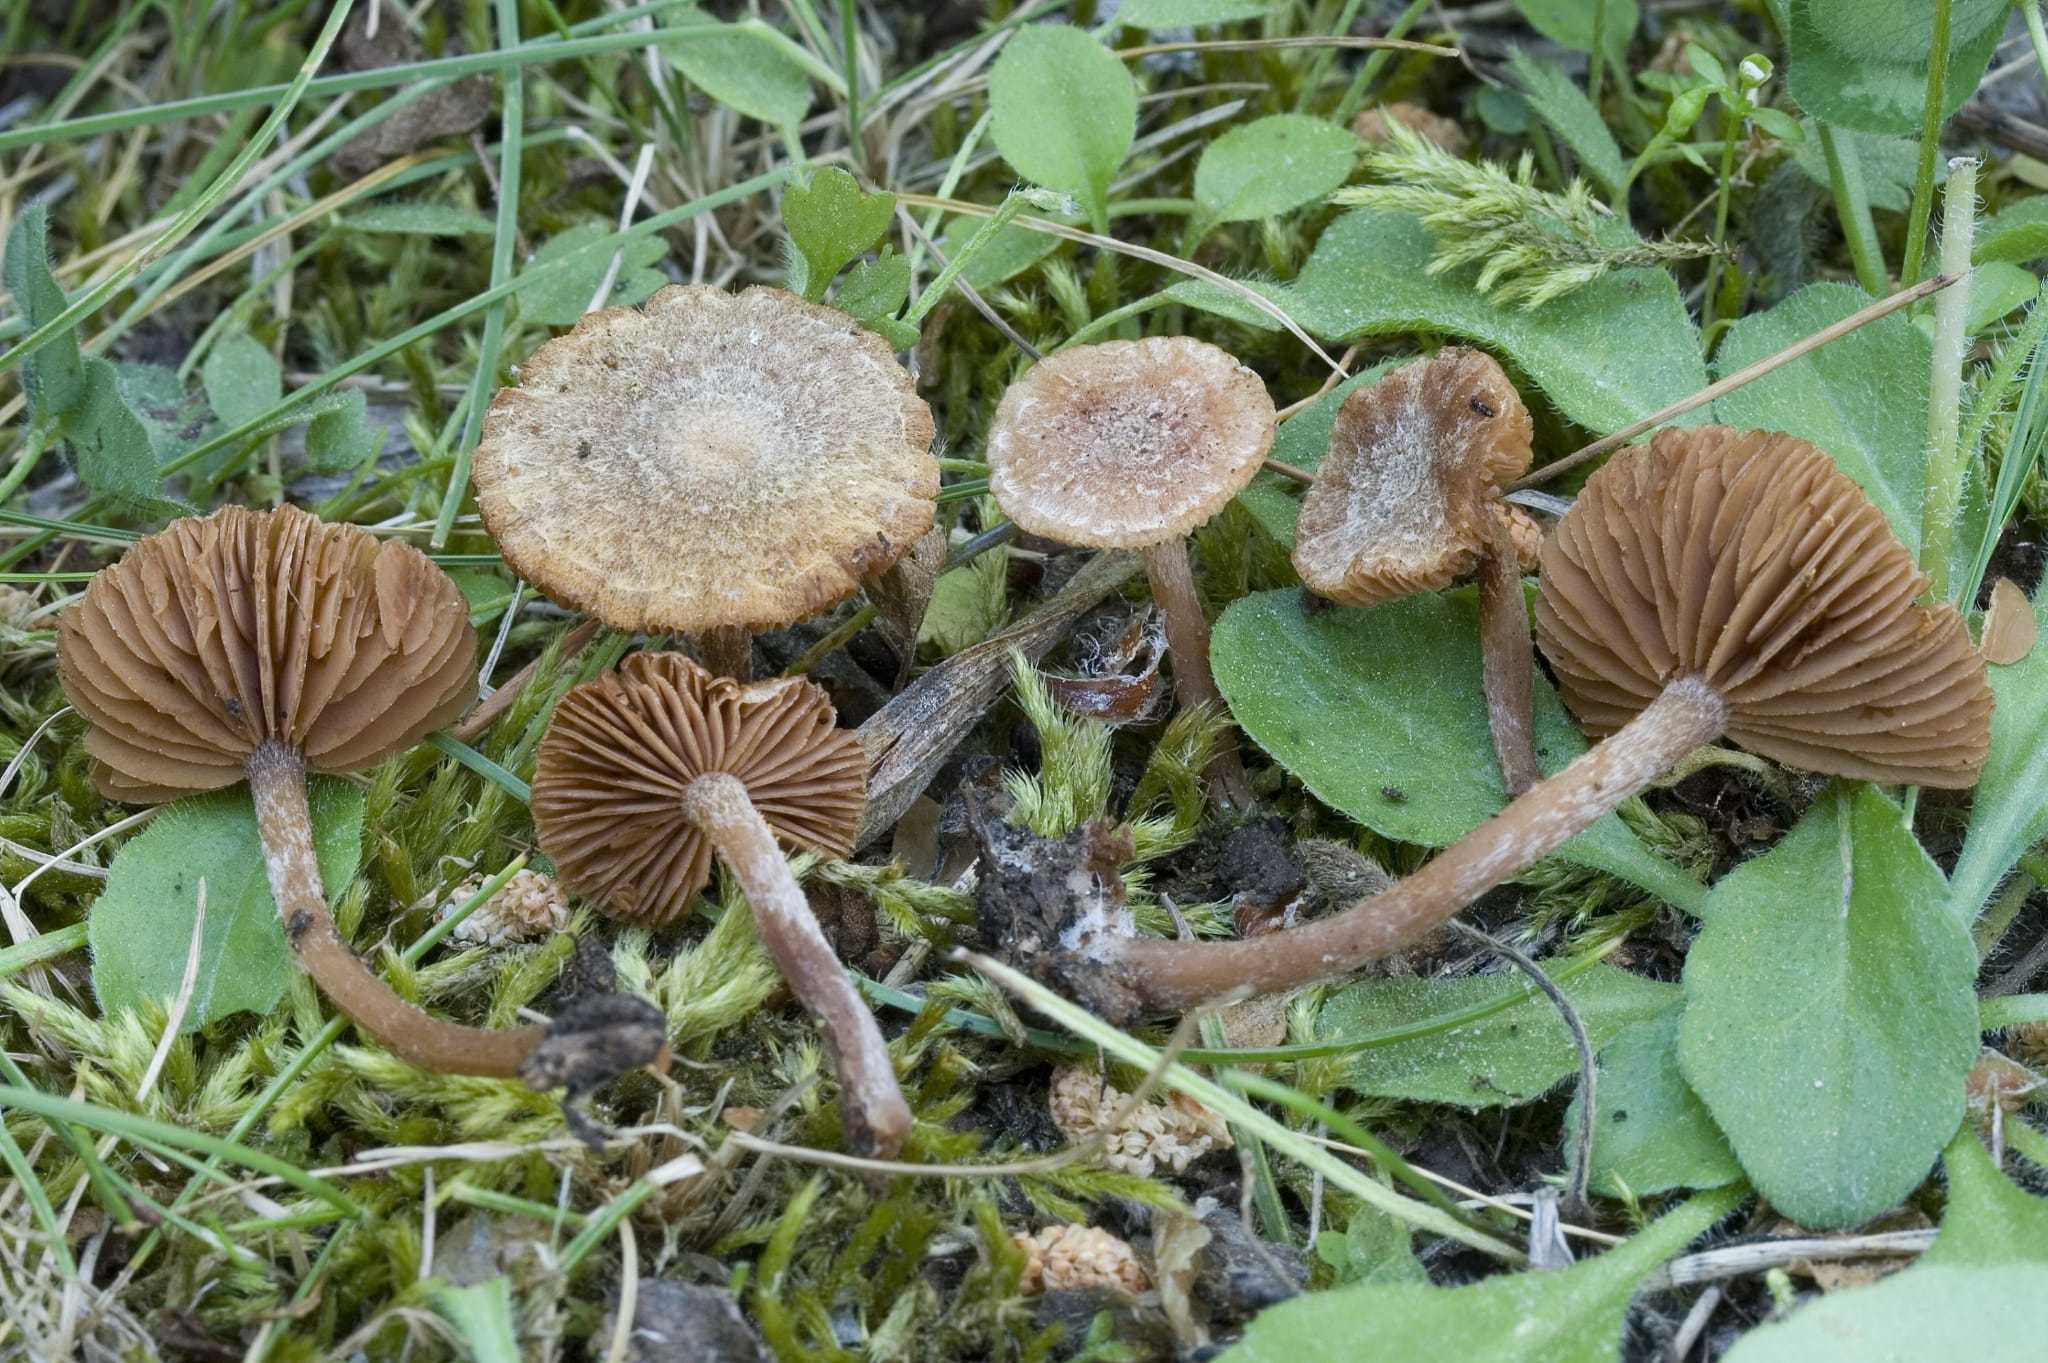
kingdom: Fungi
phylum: Basidiomycota
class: Agaricomycetes
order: Agaricales
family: Tubariaceae
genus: Tubaria
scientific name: Tubaria conspersa
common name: Felted twiglet
